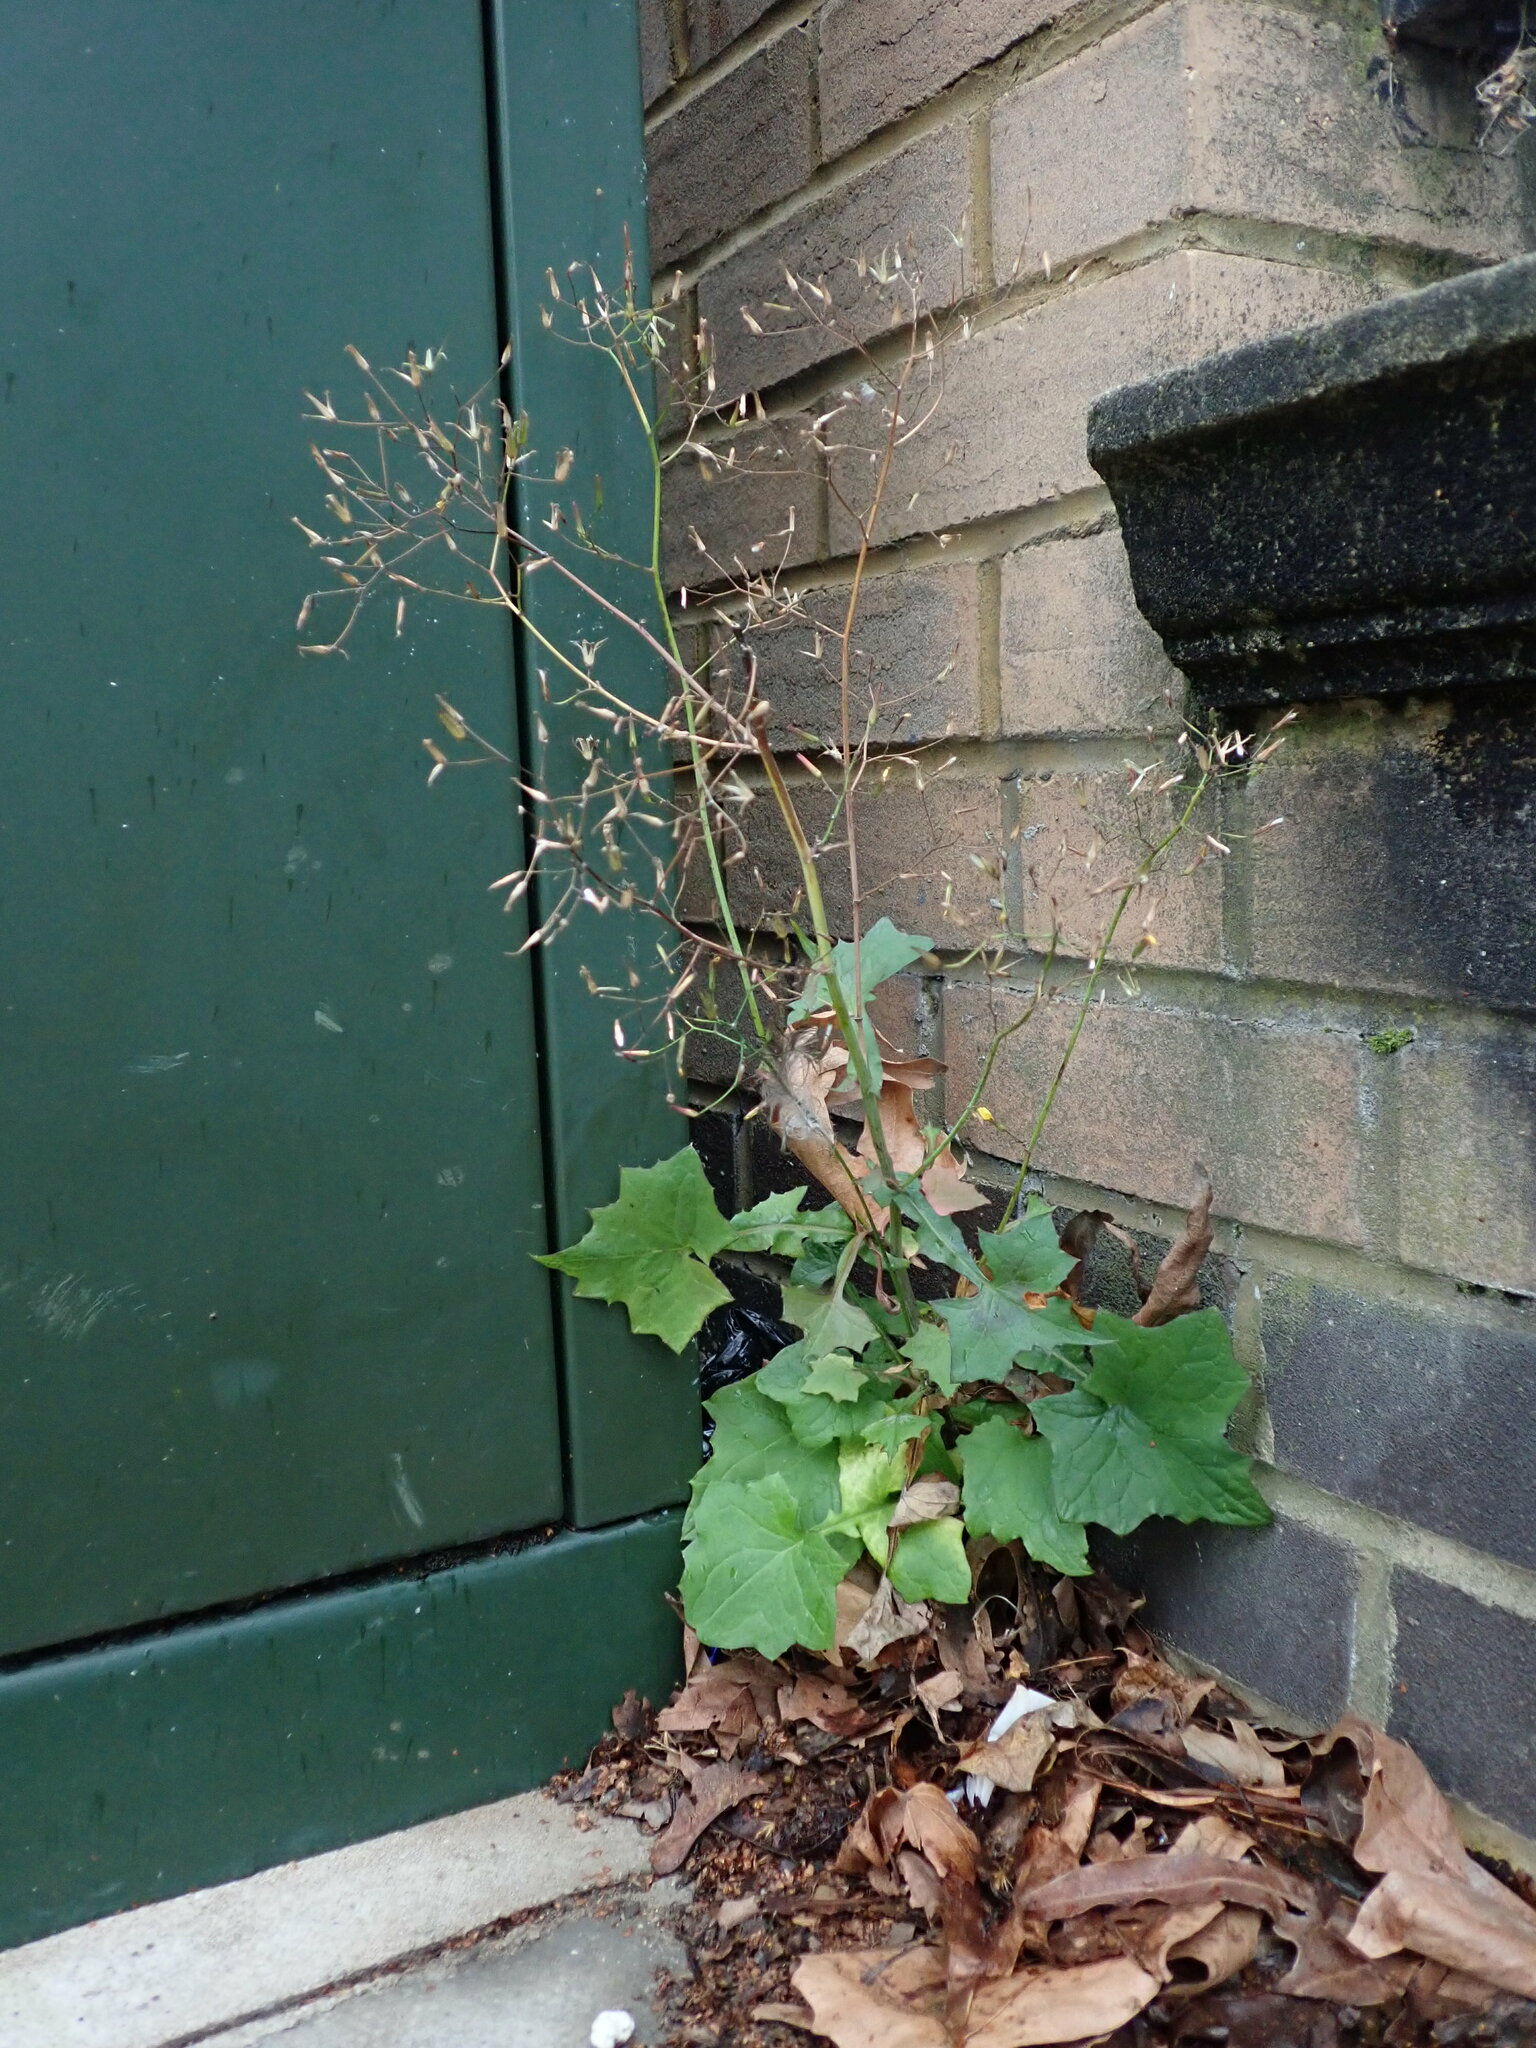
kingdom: Plantae
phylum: Tracheophyta
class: Magnoliopsida
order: Asterales
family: Asteraceae
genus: Mycelis
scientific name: Mycelis muralis
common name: Wall lettuce
